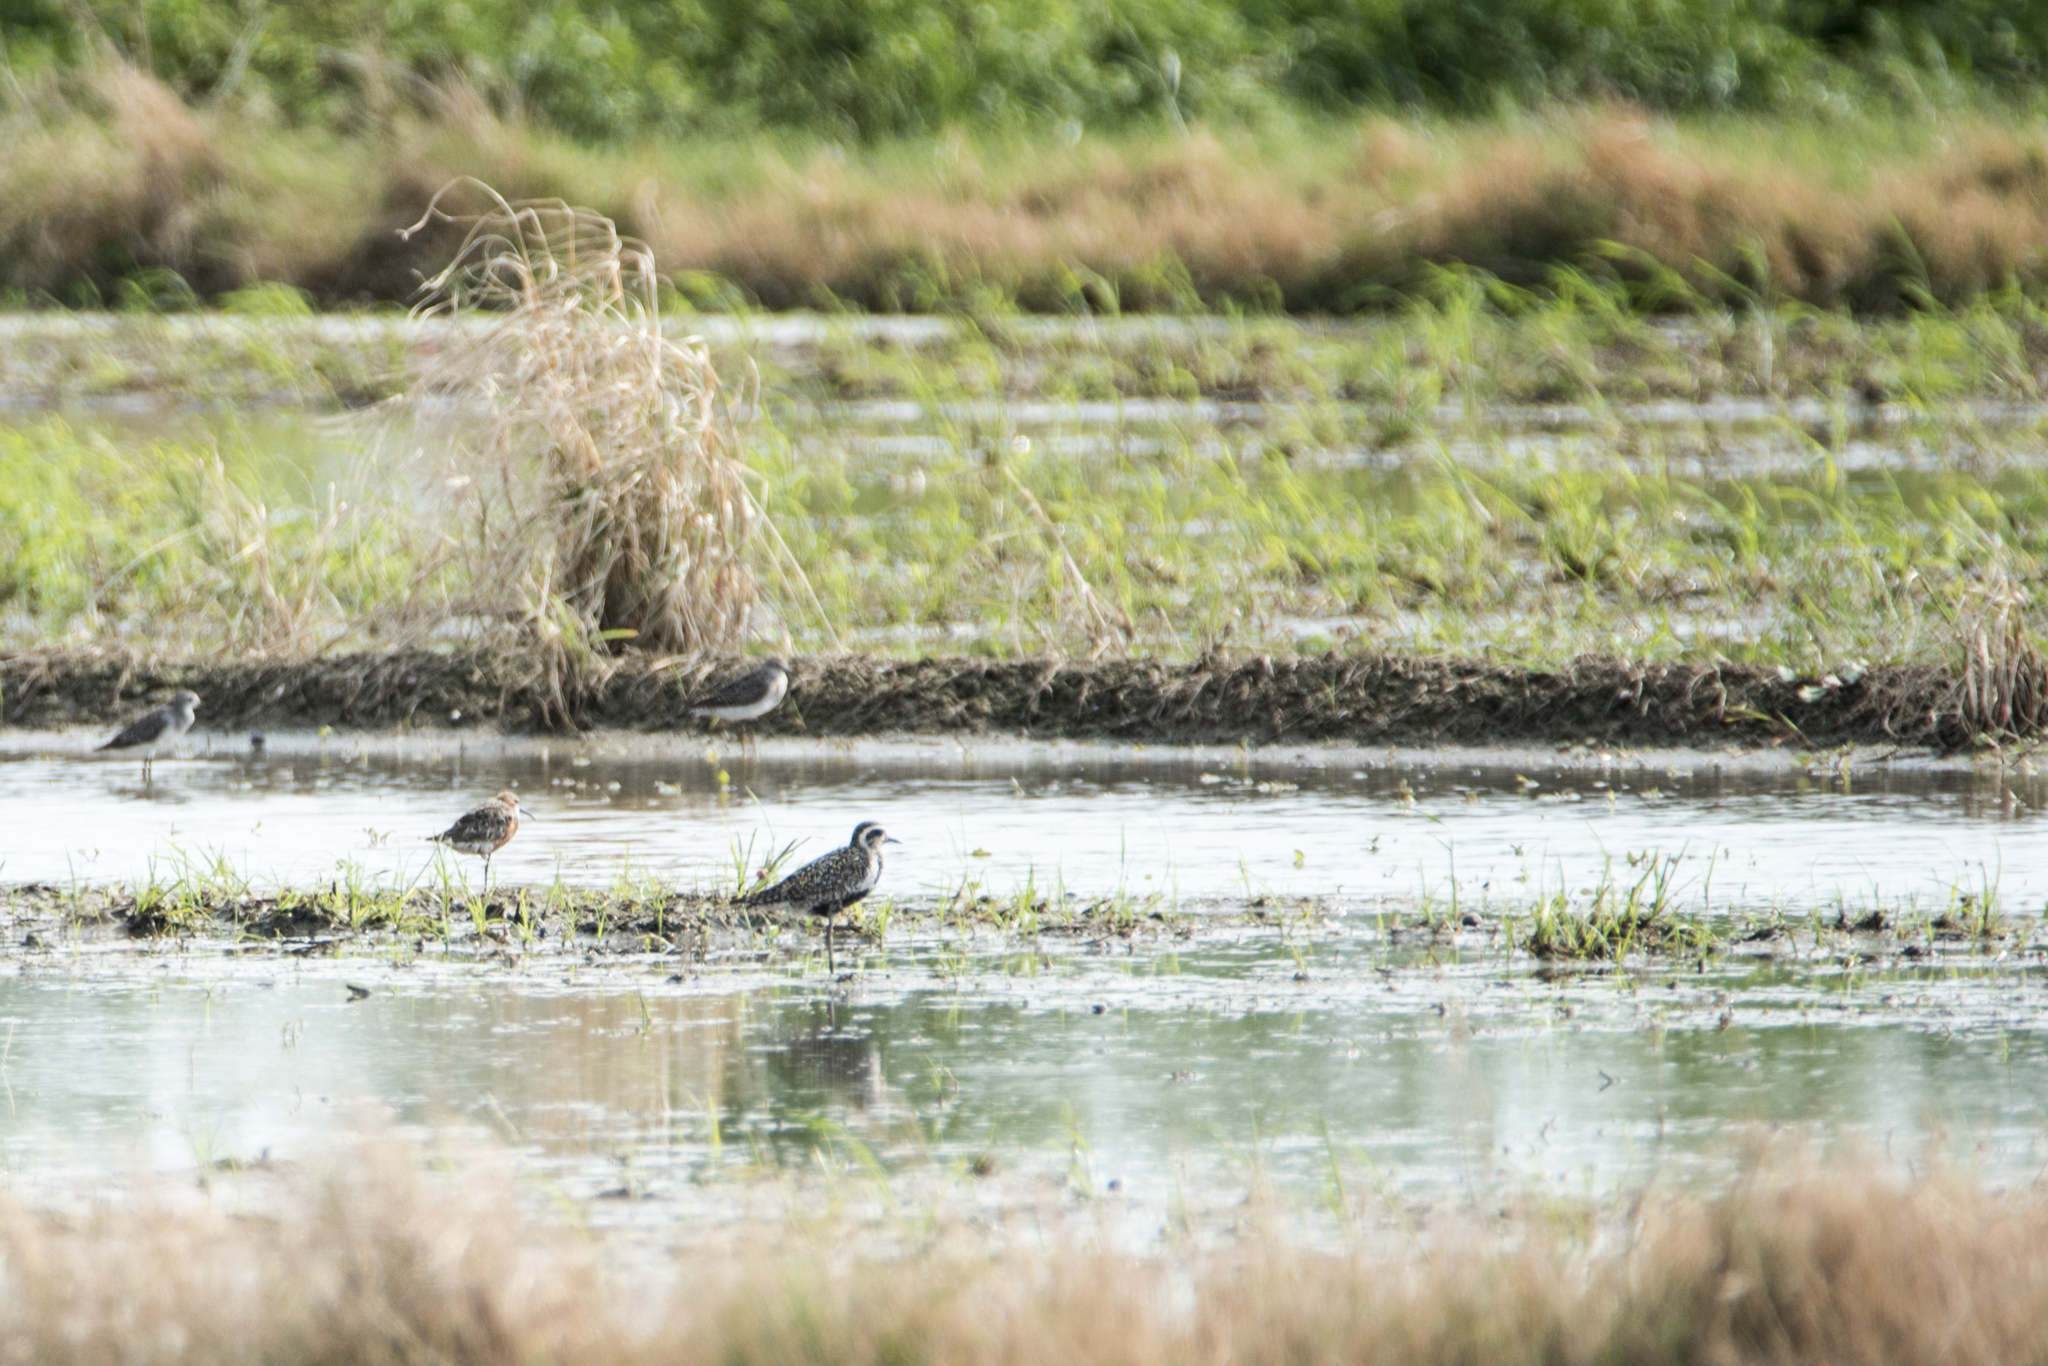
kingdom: Animalia
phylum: Chordata
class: Aves
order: Charadriiformes
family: Charadriidae
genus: Pluvialis
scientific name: Pluvialis fulva
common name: Pacific golden plover
